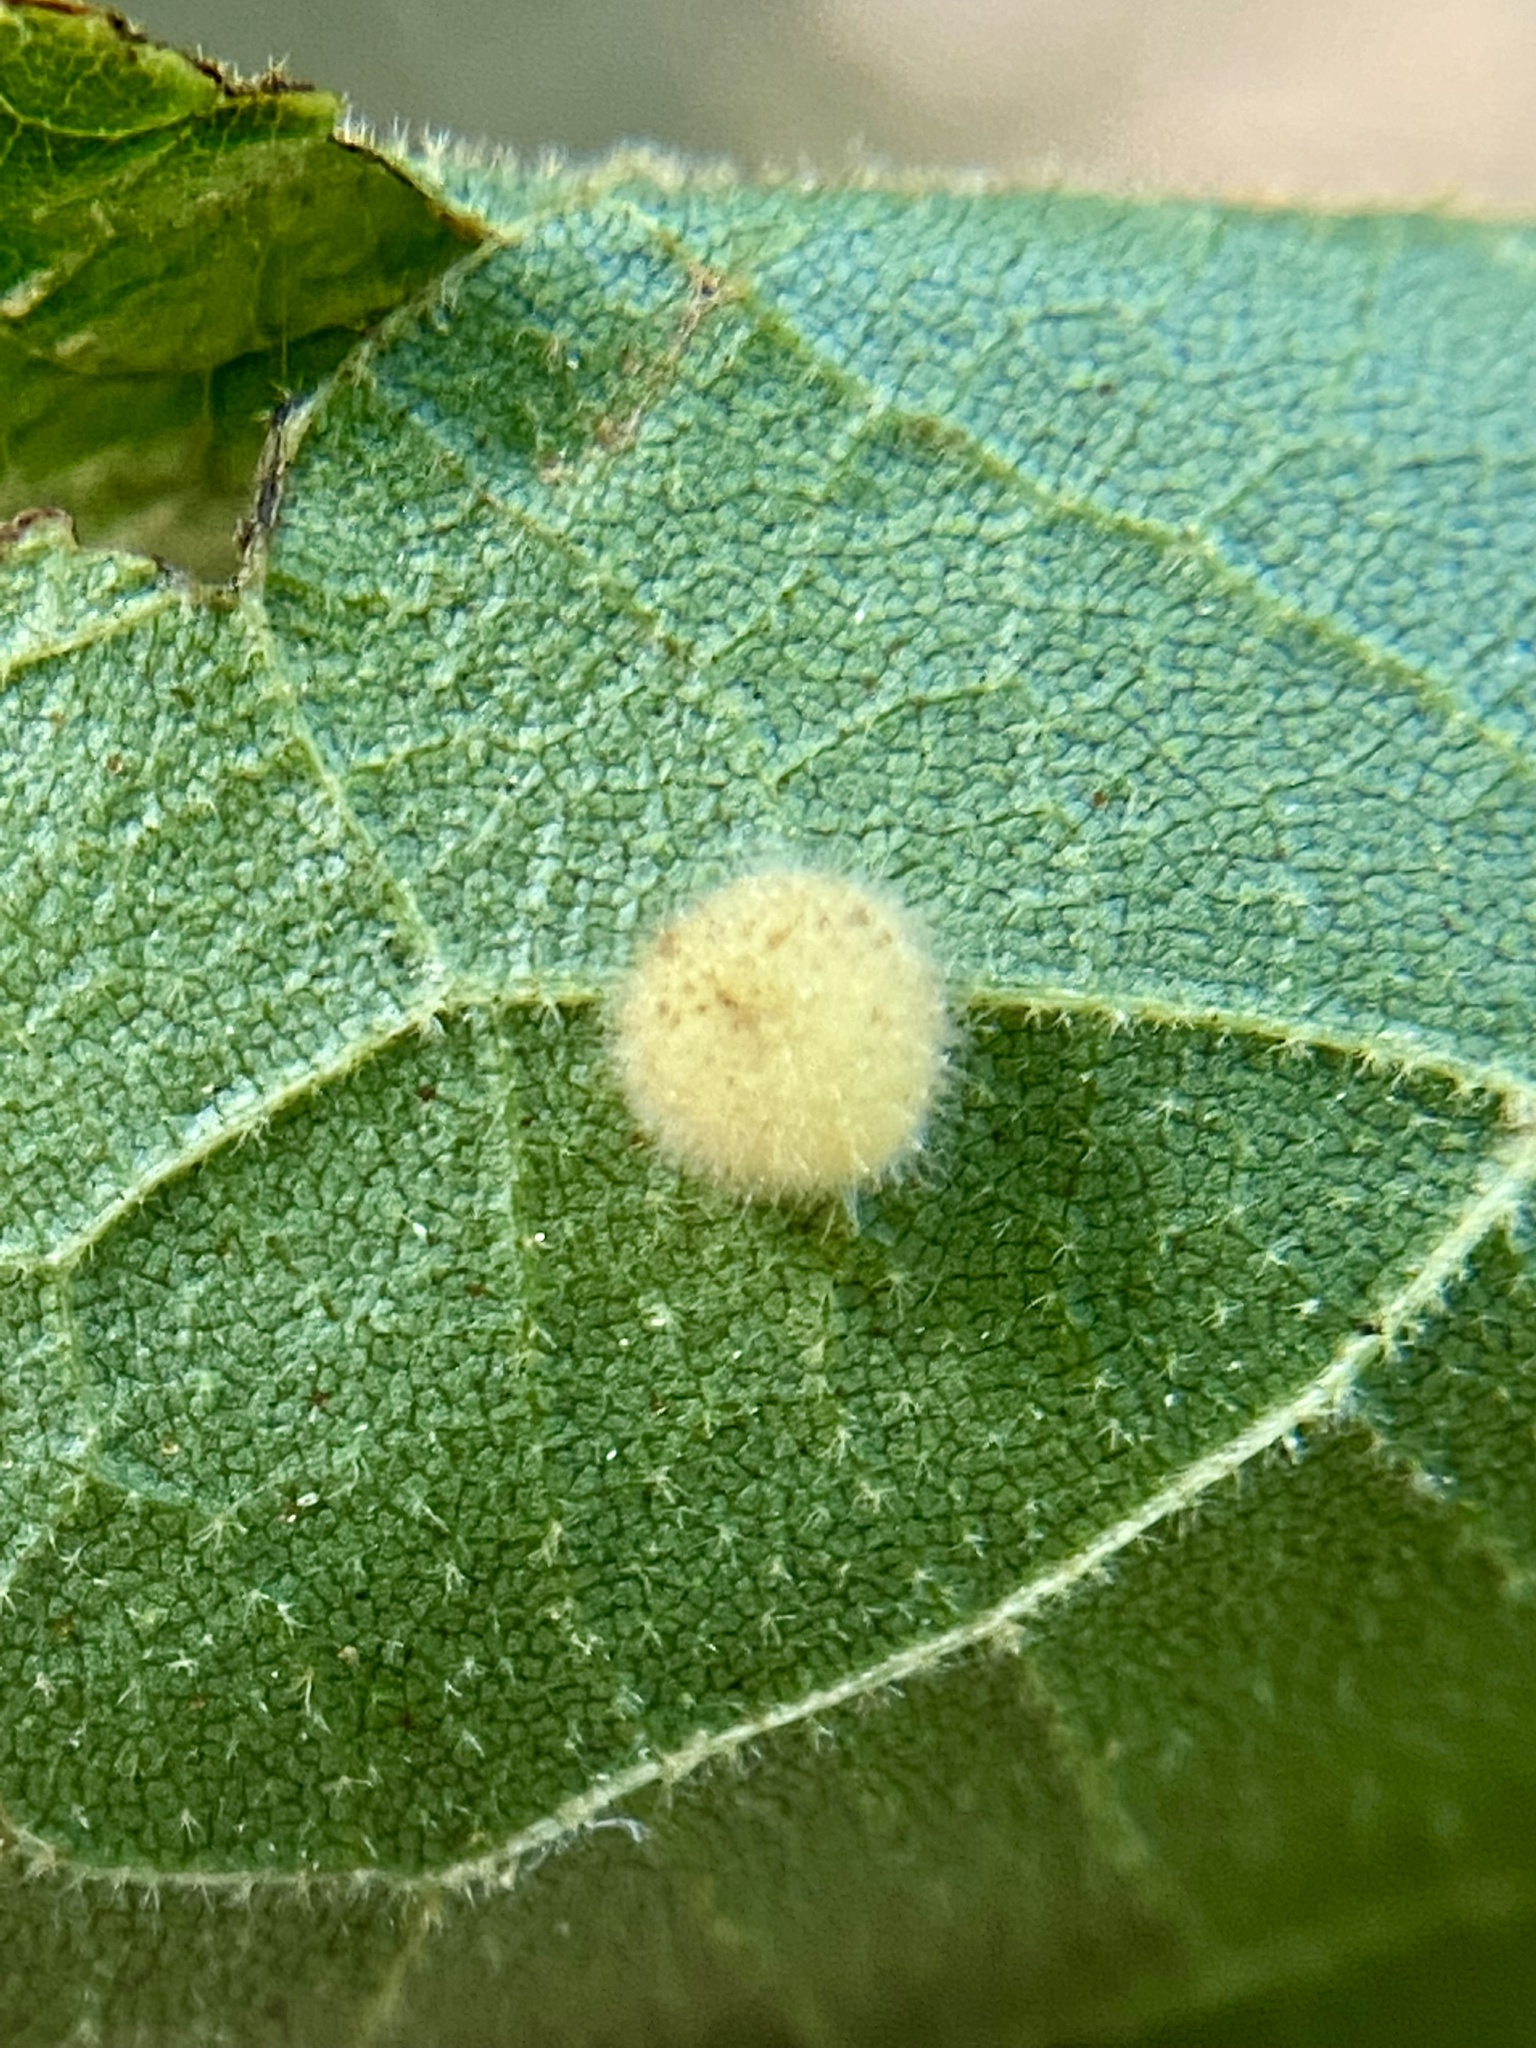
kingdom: Animalia
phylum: Arthropoda
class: Insecta
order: Diptera
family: Cecidomyiidae
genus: Caryomyia
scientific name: Caryomyia thompsoni
